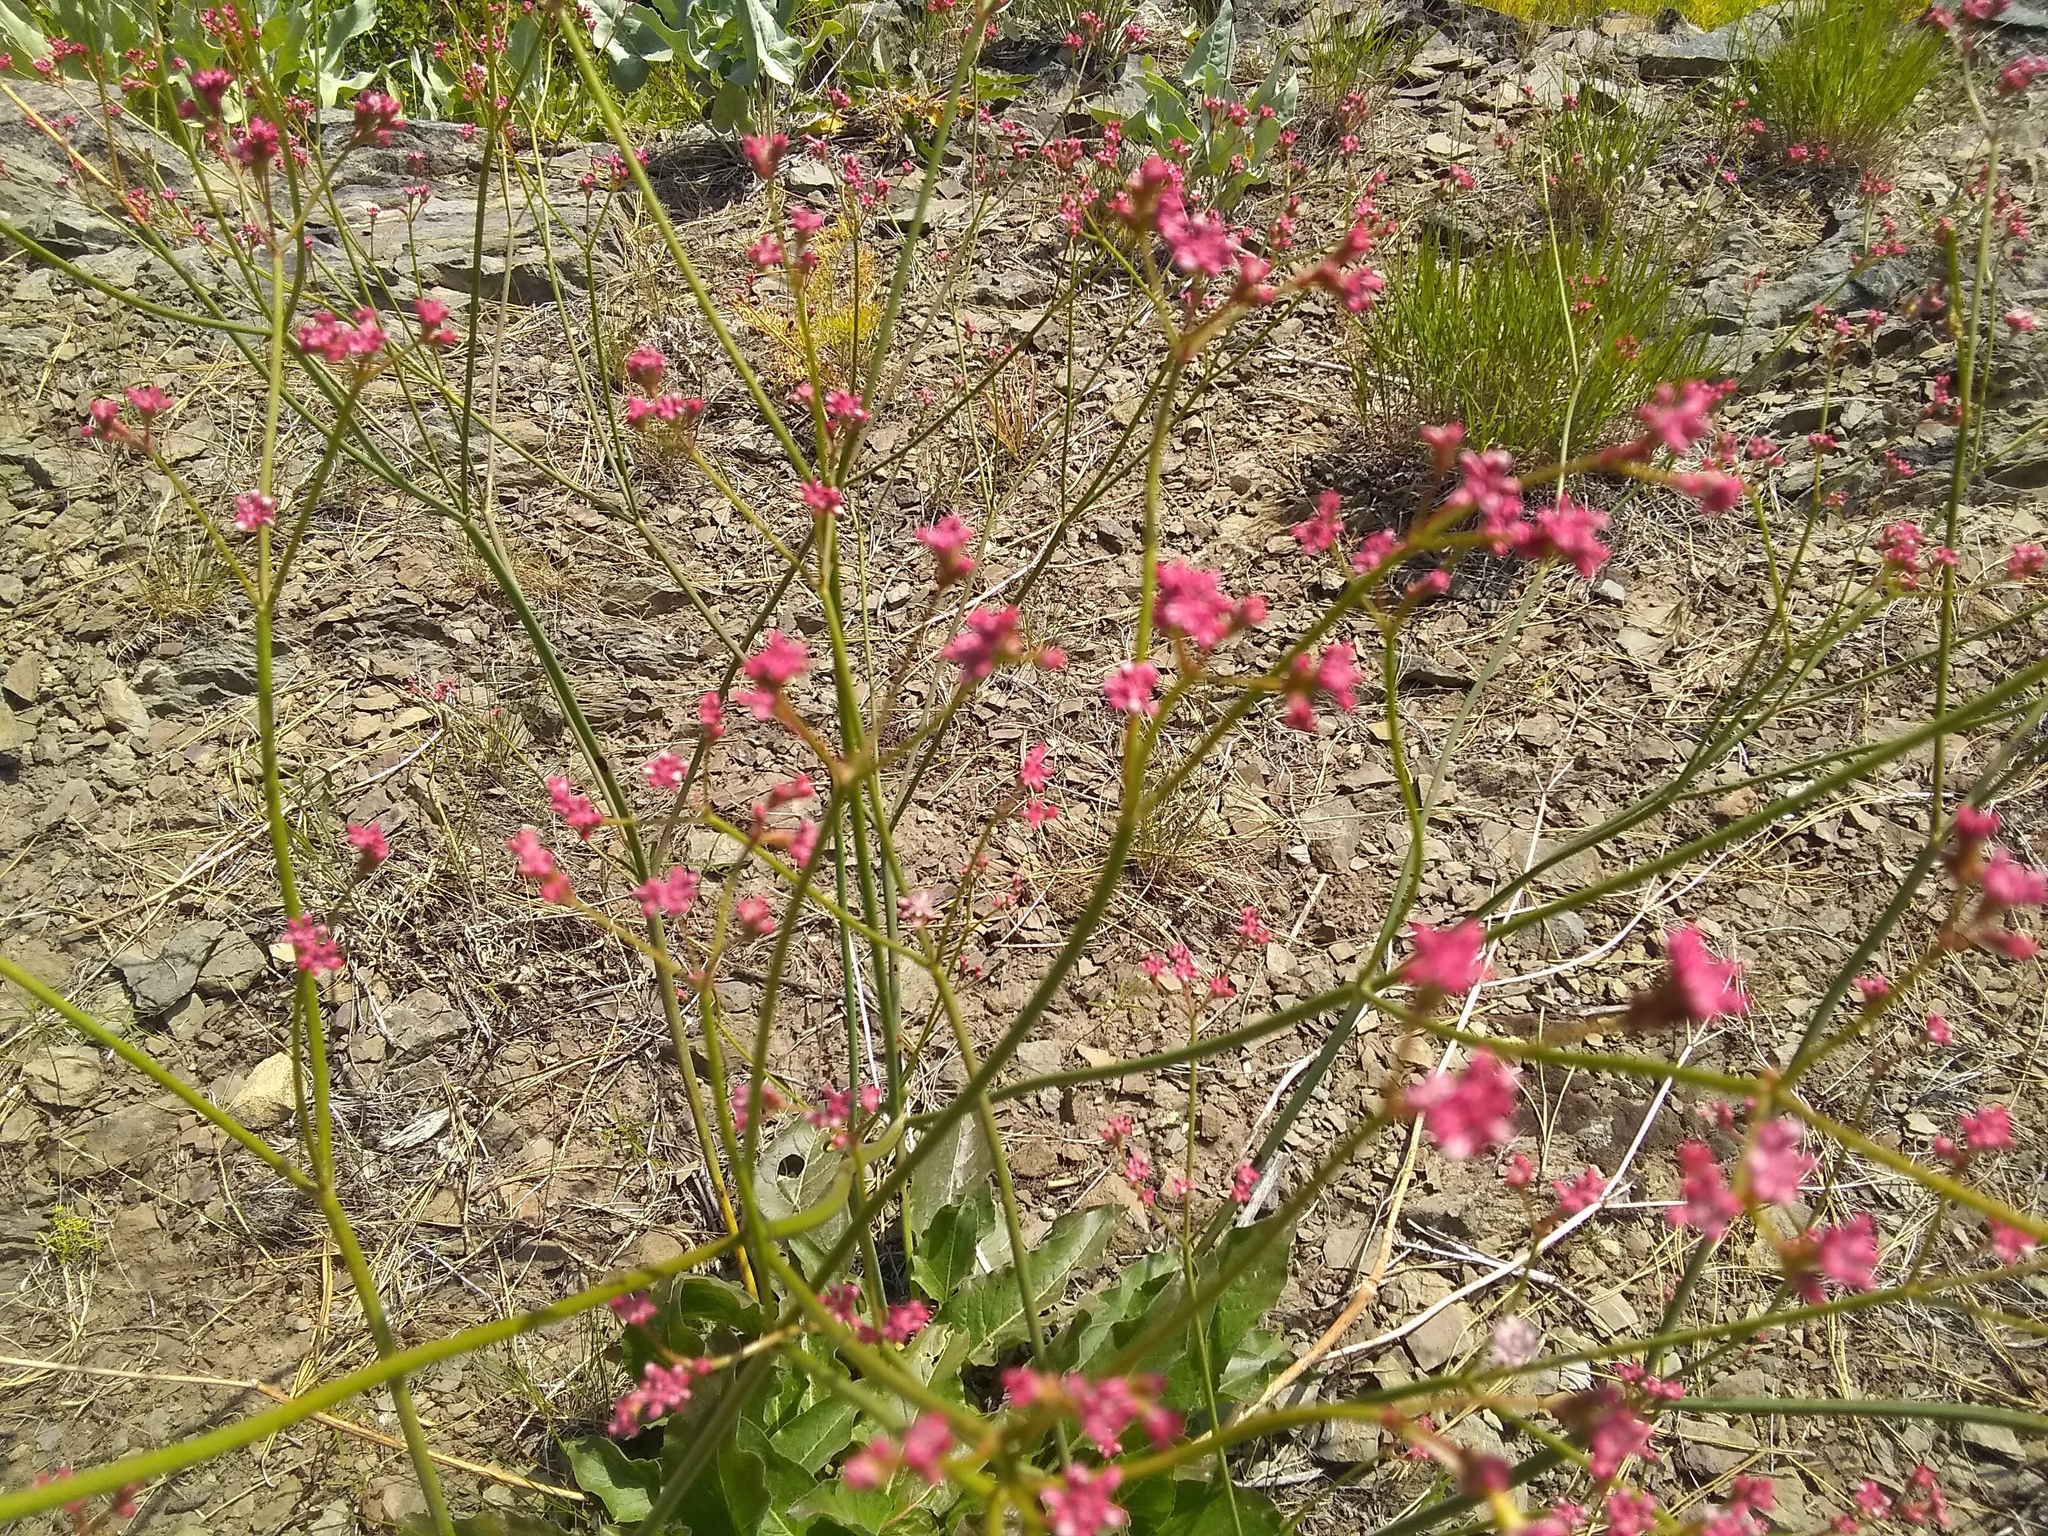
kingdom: Plantae
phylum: Tracheophyta
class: Magnoliopsida
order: Caryophyllales
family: Polygonaceae
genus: Eriogonum
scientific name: Eriogonum elatum
